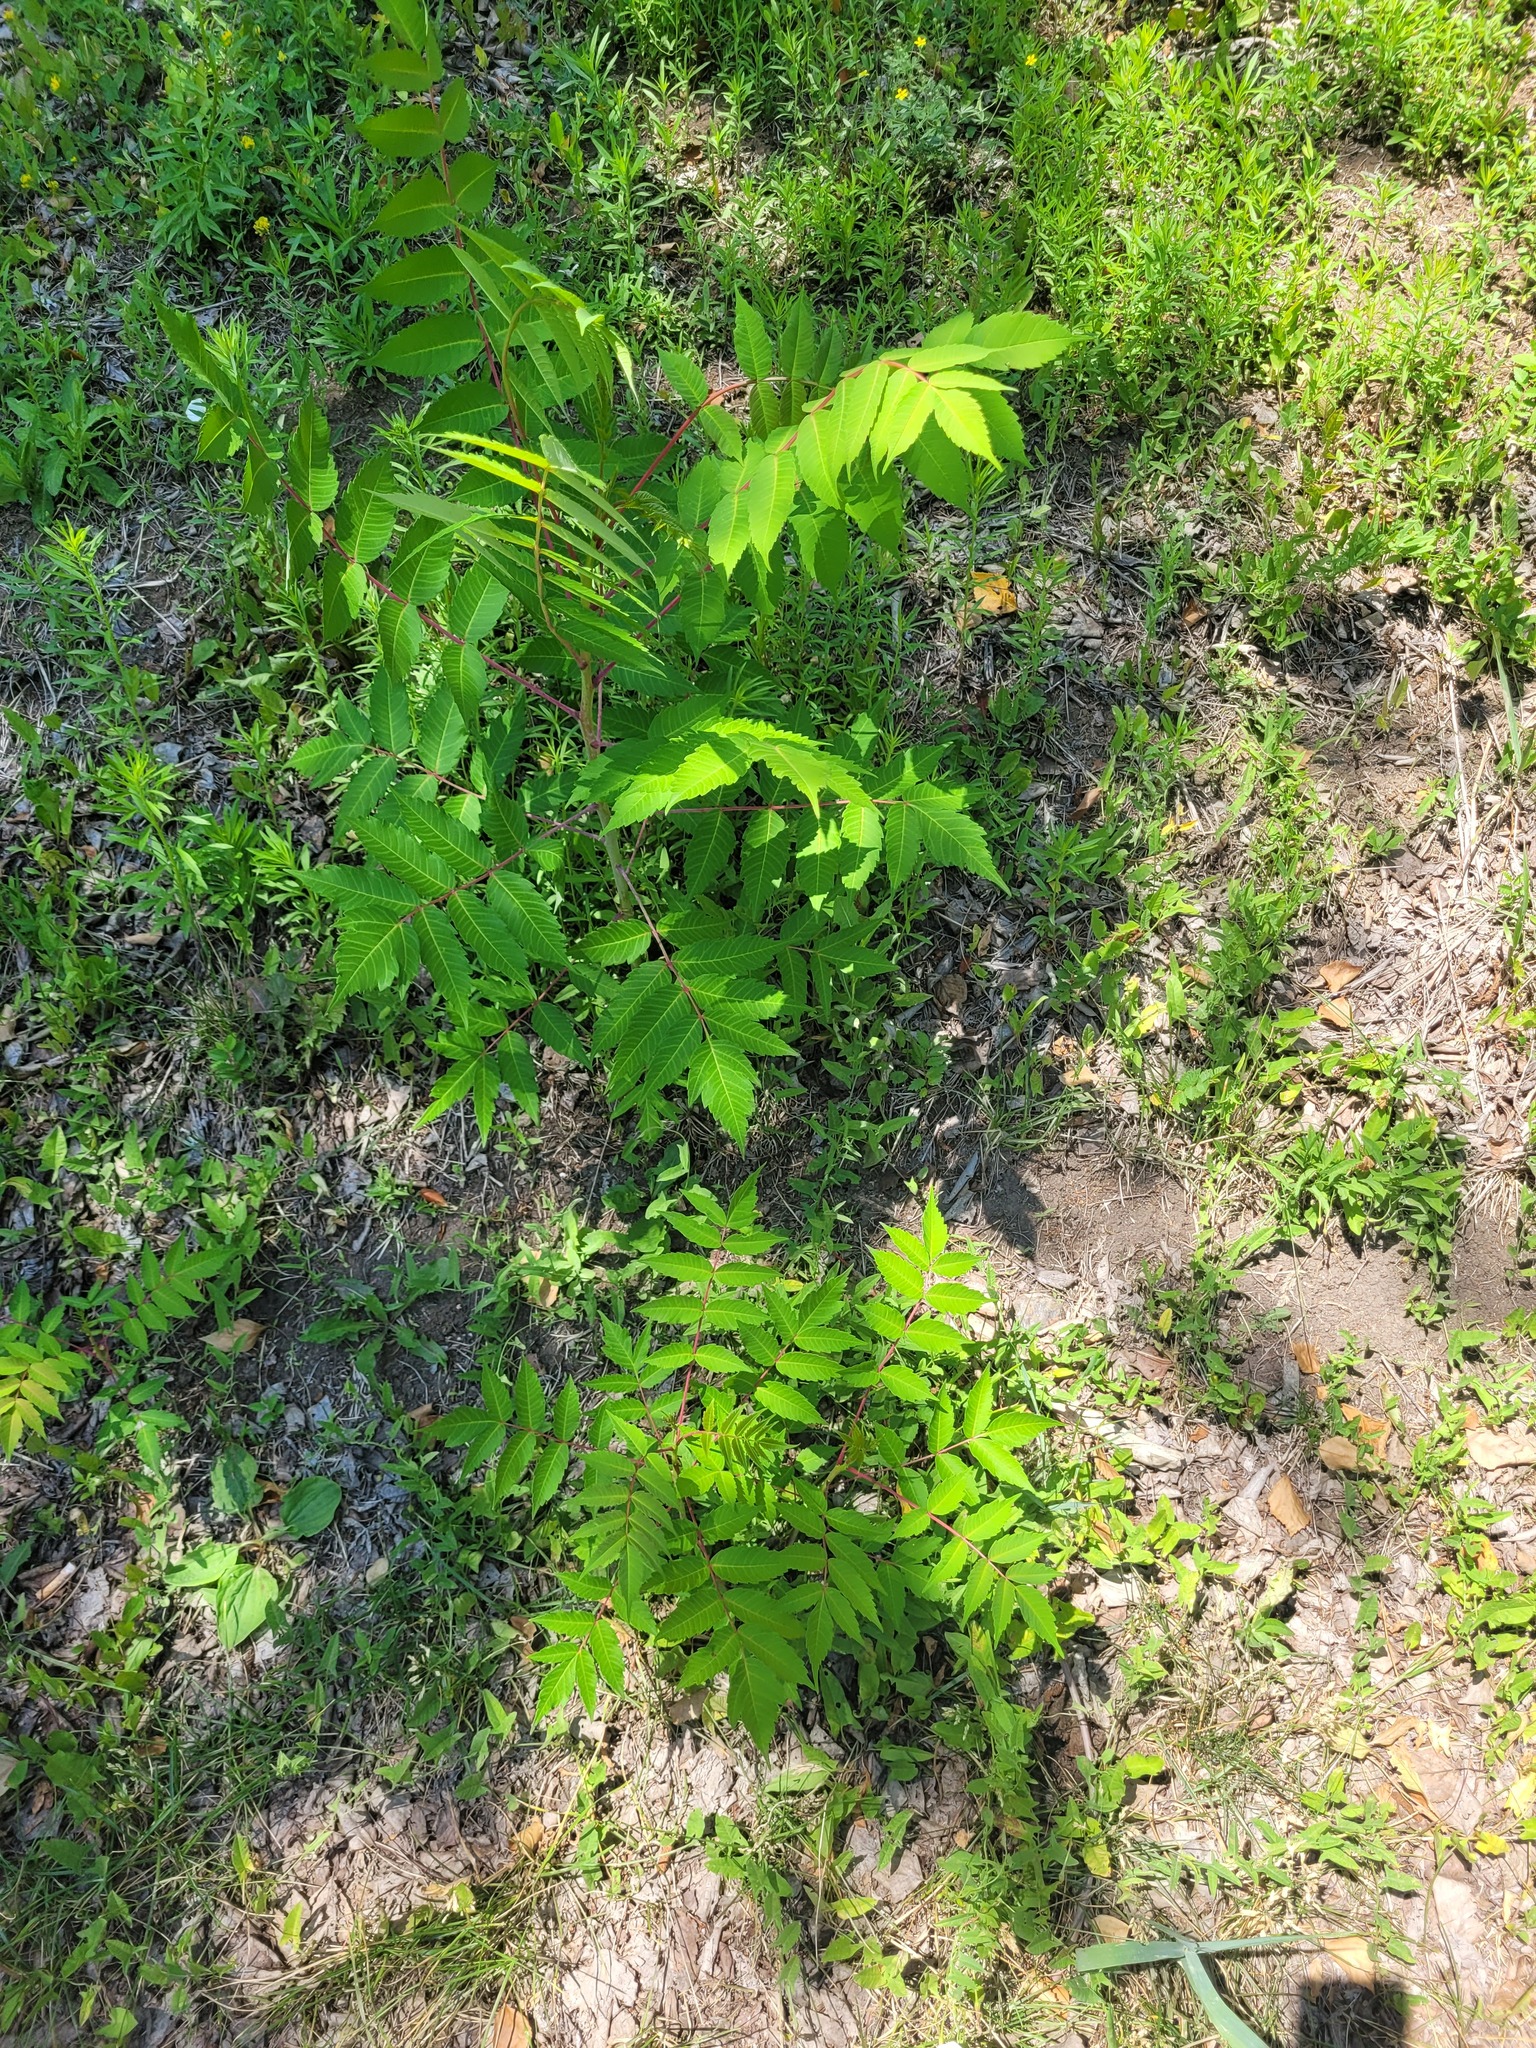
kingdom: Plantae
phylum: Tracheophyta
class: Magnoliopsida
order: Sapindales
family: Anacardiaceae
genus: Rhus
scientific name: Rhus typhina
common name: Staghorn sumac
